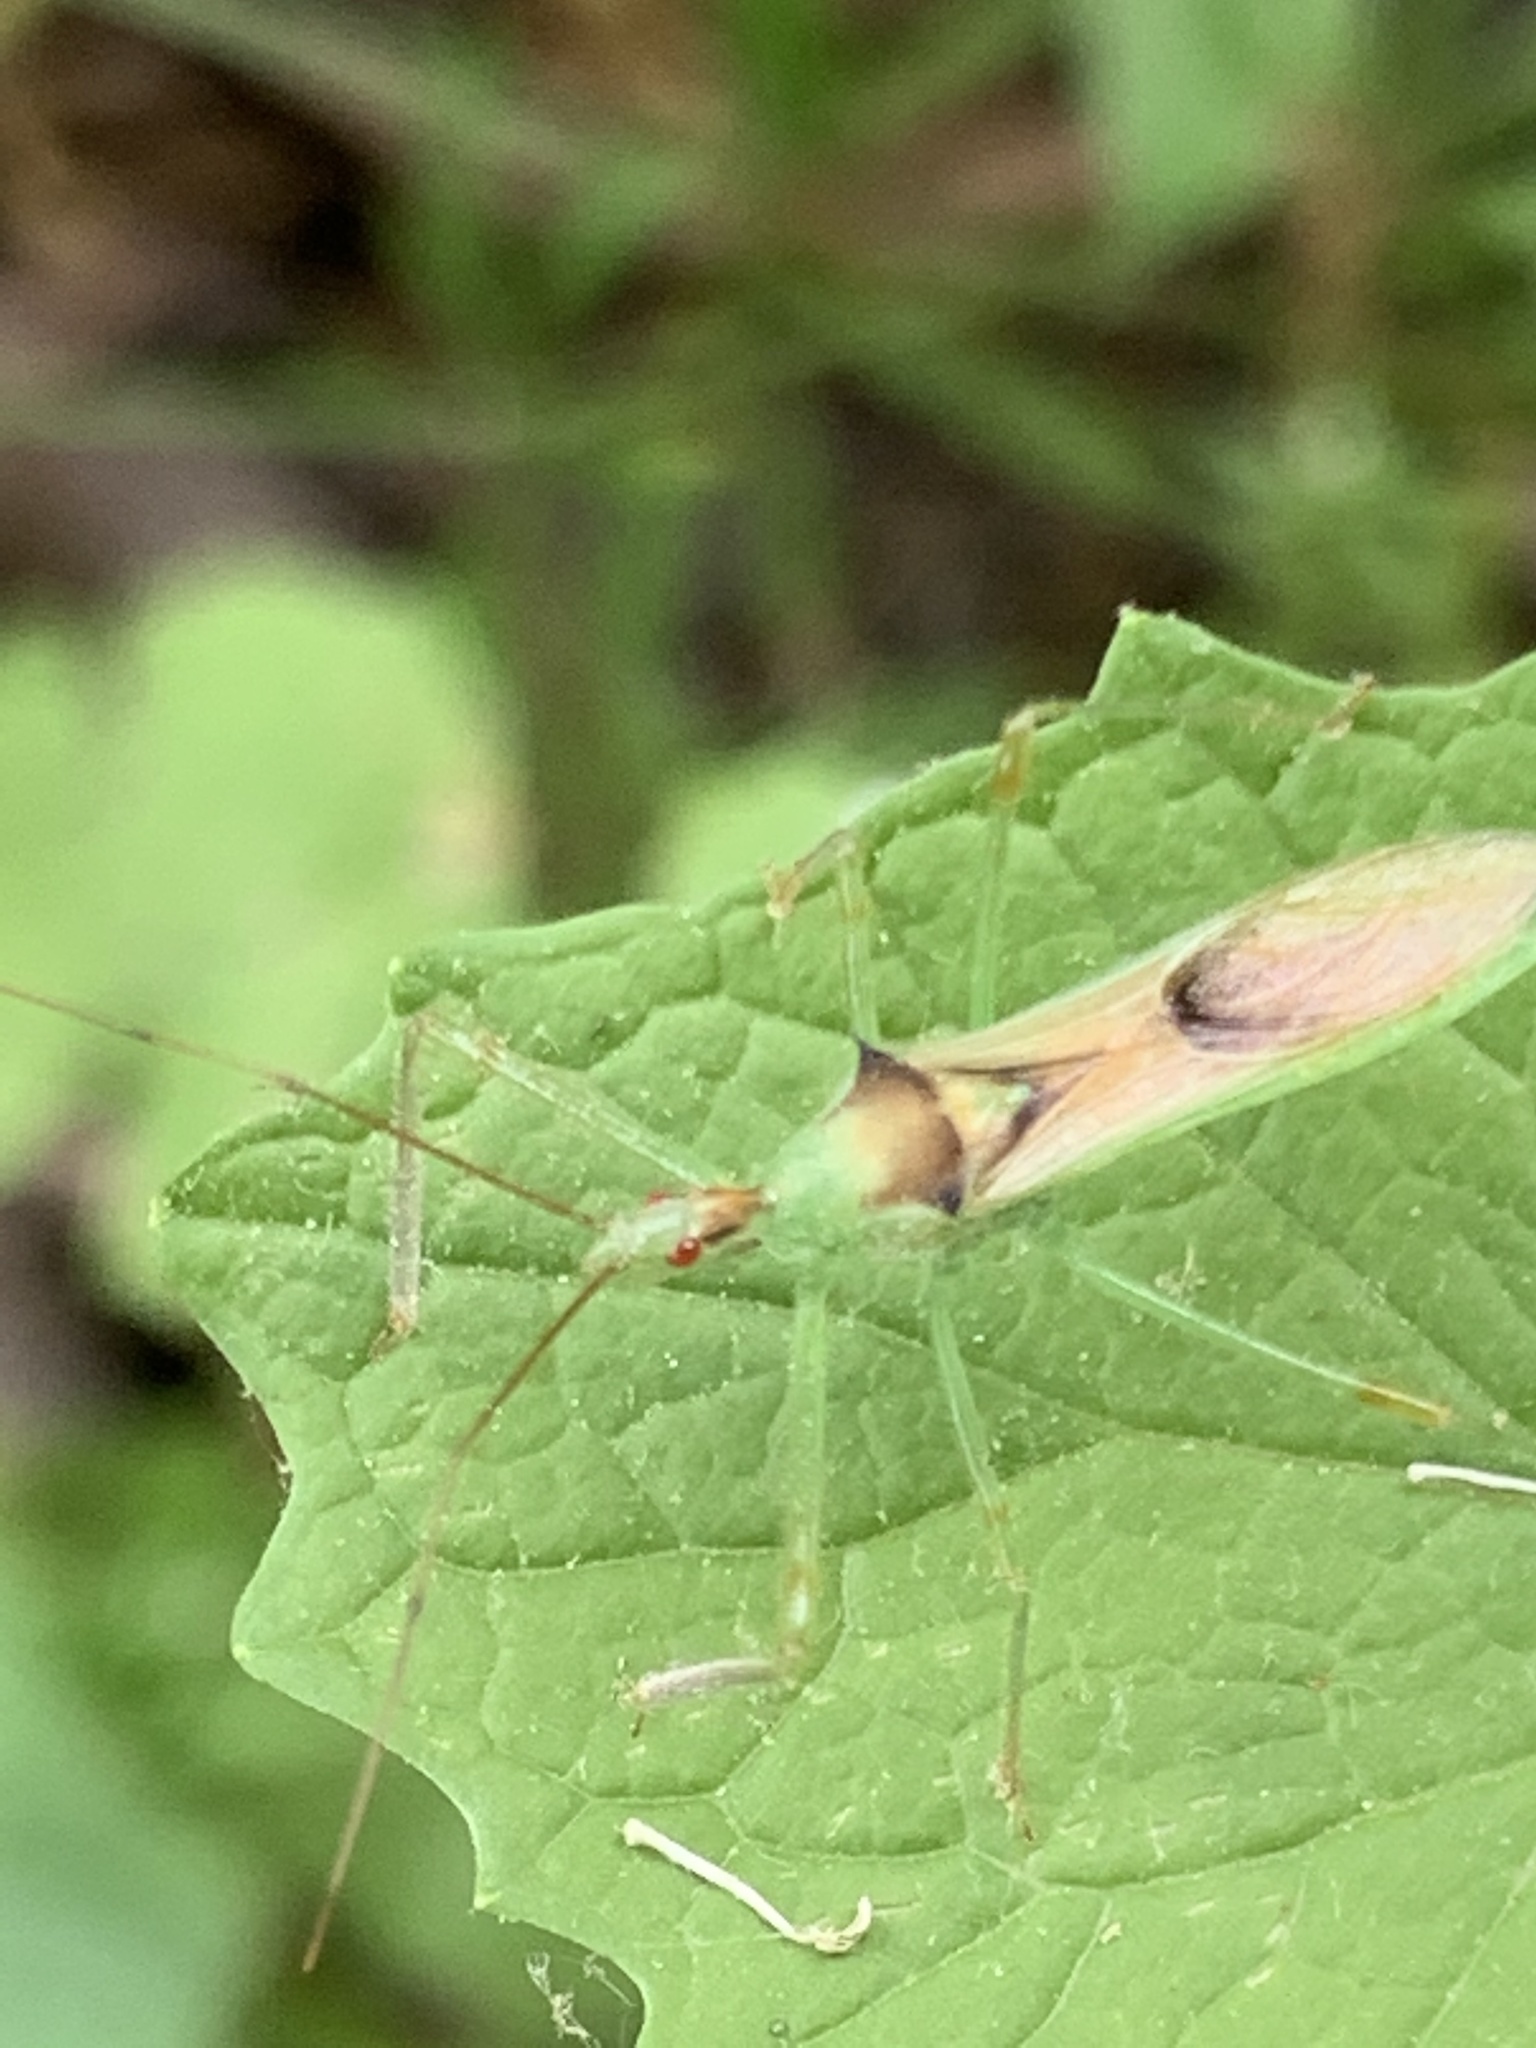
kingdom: Animalia
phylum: Arthropoda
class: Insecta
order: Hemiptera
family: Reduviidae
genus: Zelus
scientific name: Zelus luridus
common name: Pale green assassin bug
